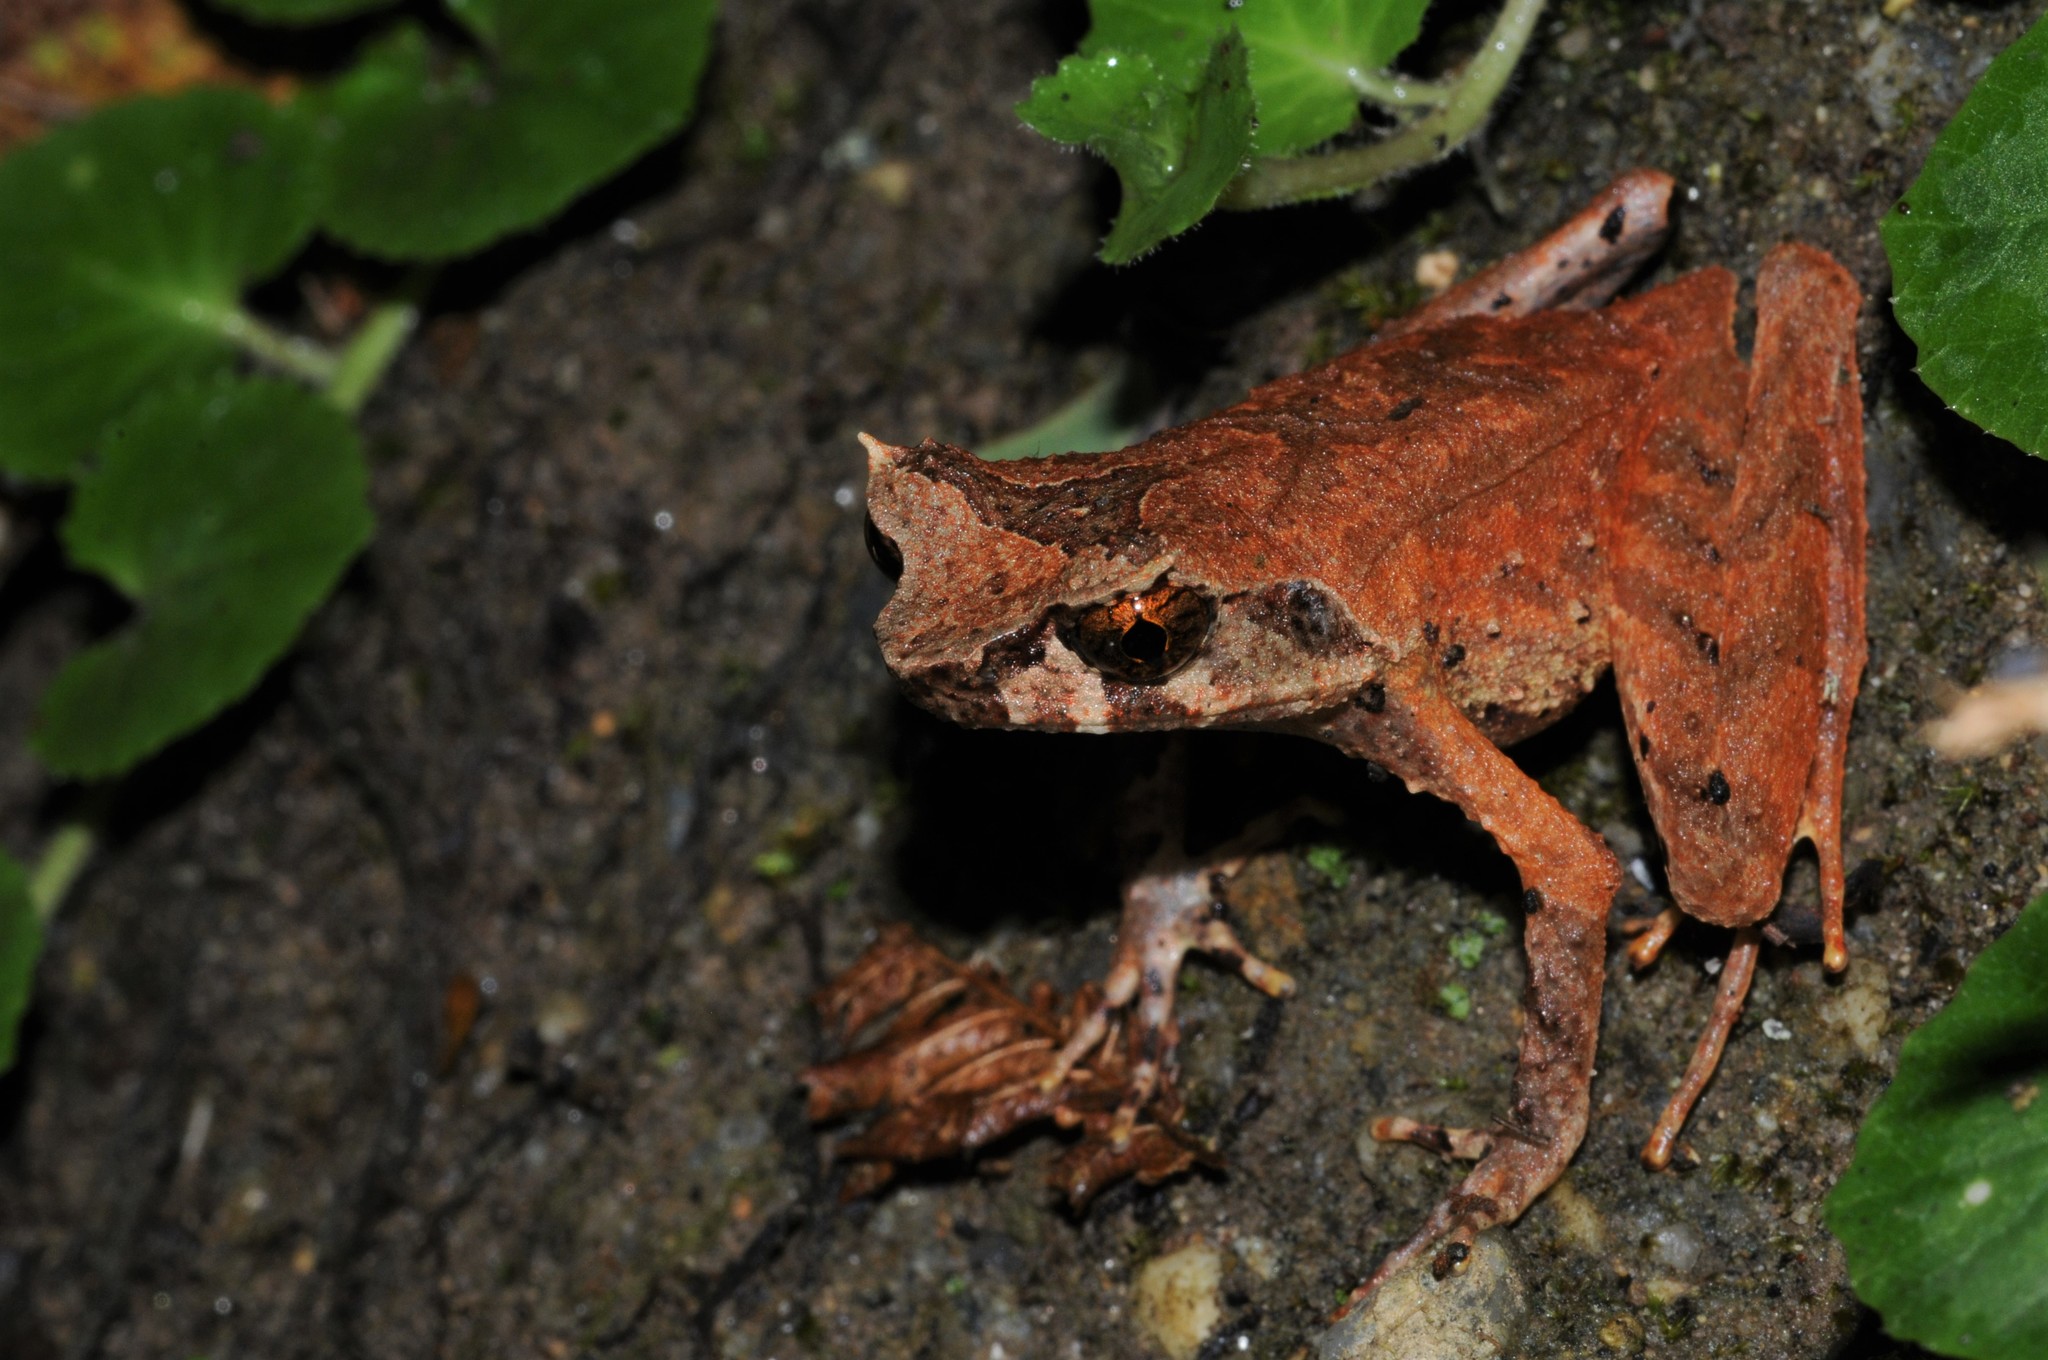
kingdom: Animalia
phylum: Chordata
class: Amphibia
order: Anura
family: Megophryidae
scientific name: Megophryidae
